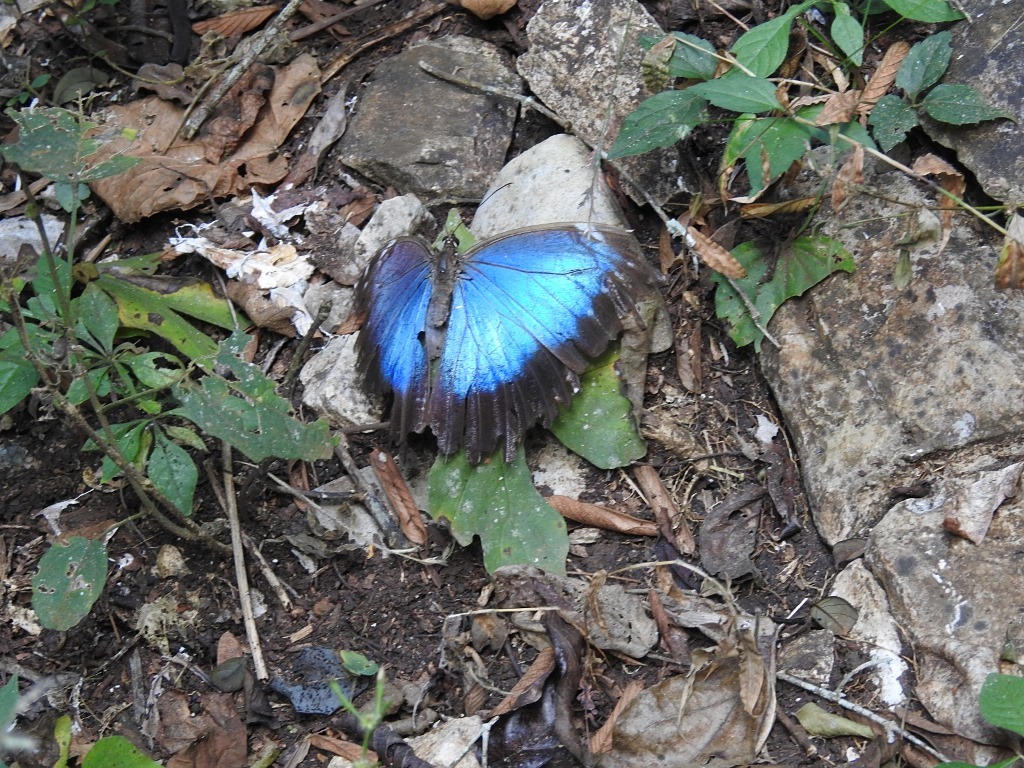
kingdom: Animalia
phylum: Arthropoda
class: Insecta
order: Lepidoptera
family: Nymphalidae
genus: Morpho
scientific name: Morpho helenor
